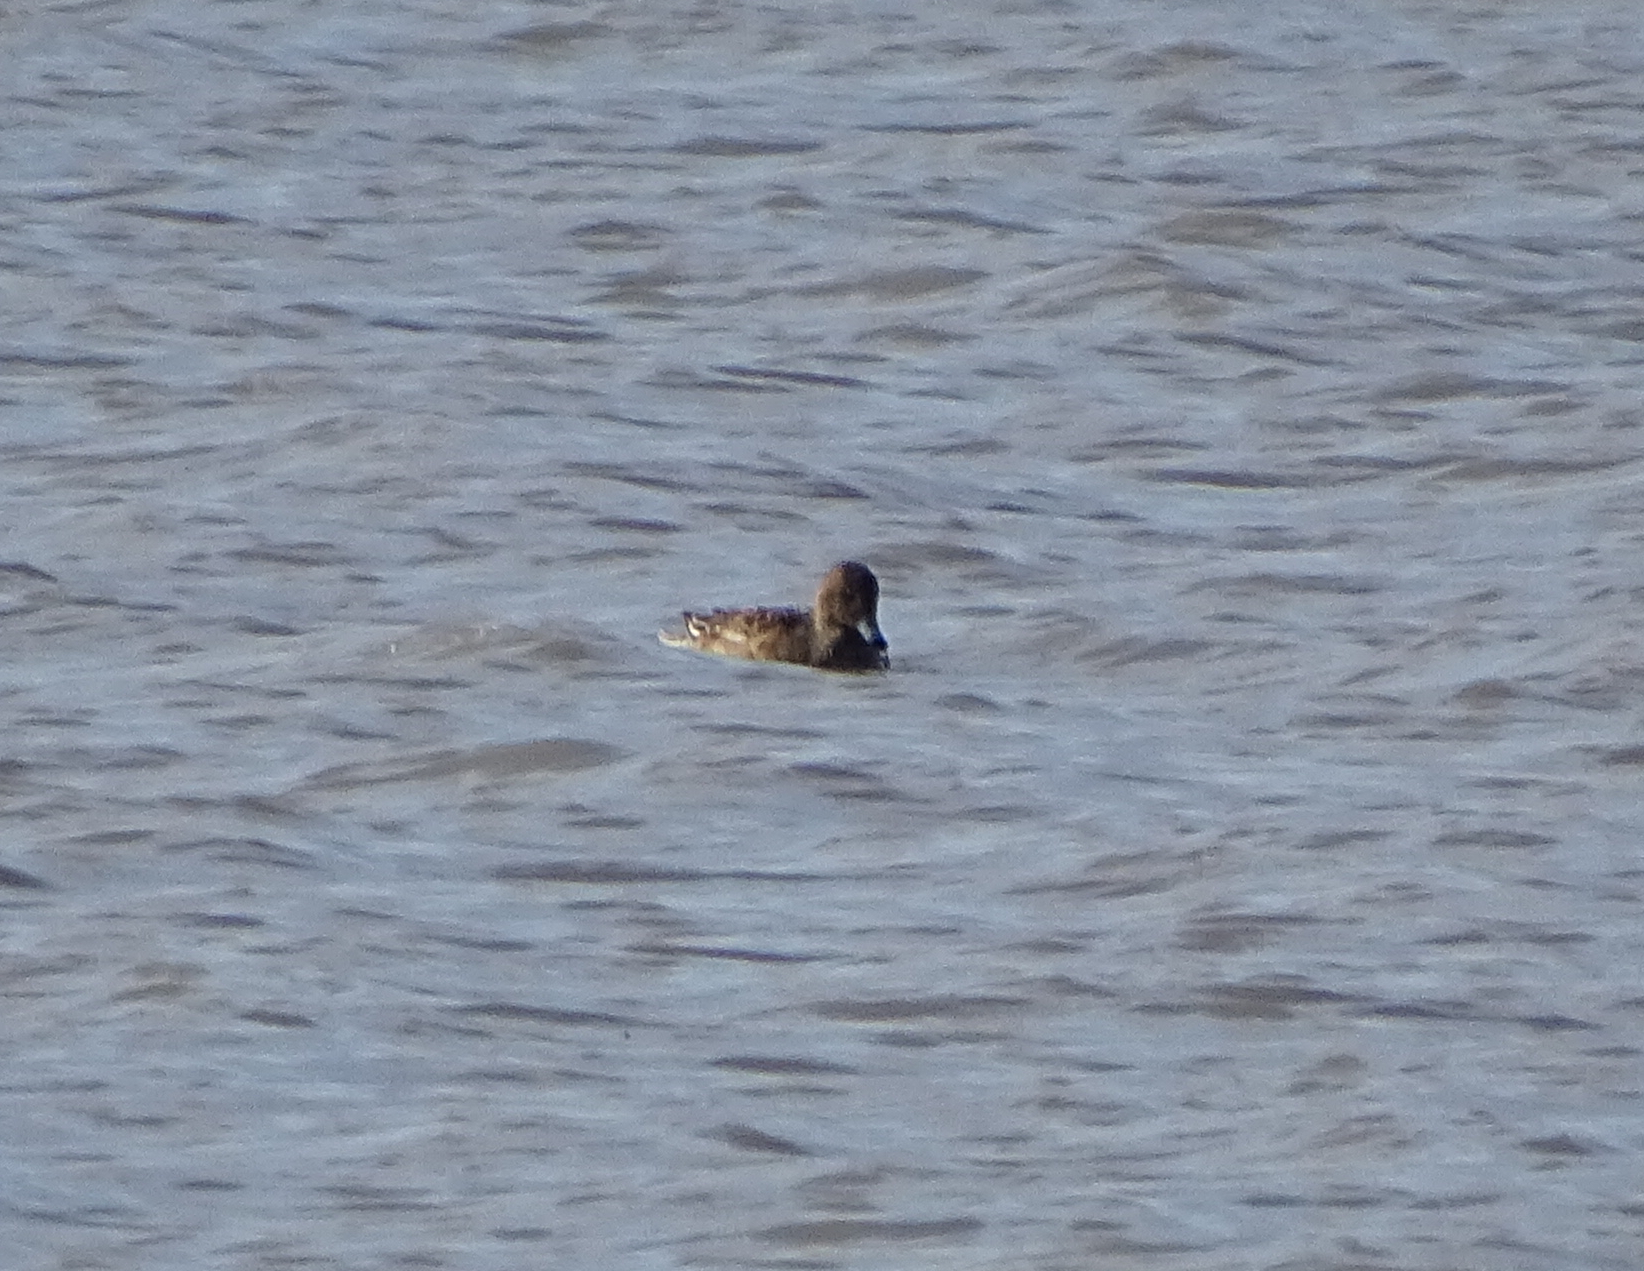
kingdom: Animalia
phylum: Chordata
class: Aves
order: Anseriformes
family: Anatidae
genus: Mareca
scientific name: Mareca penelope
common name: Eurasian wigeon
